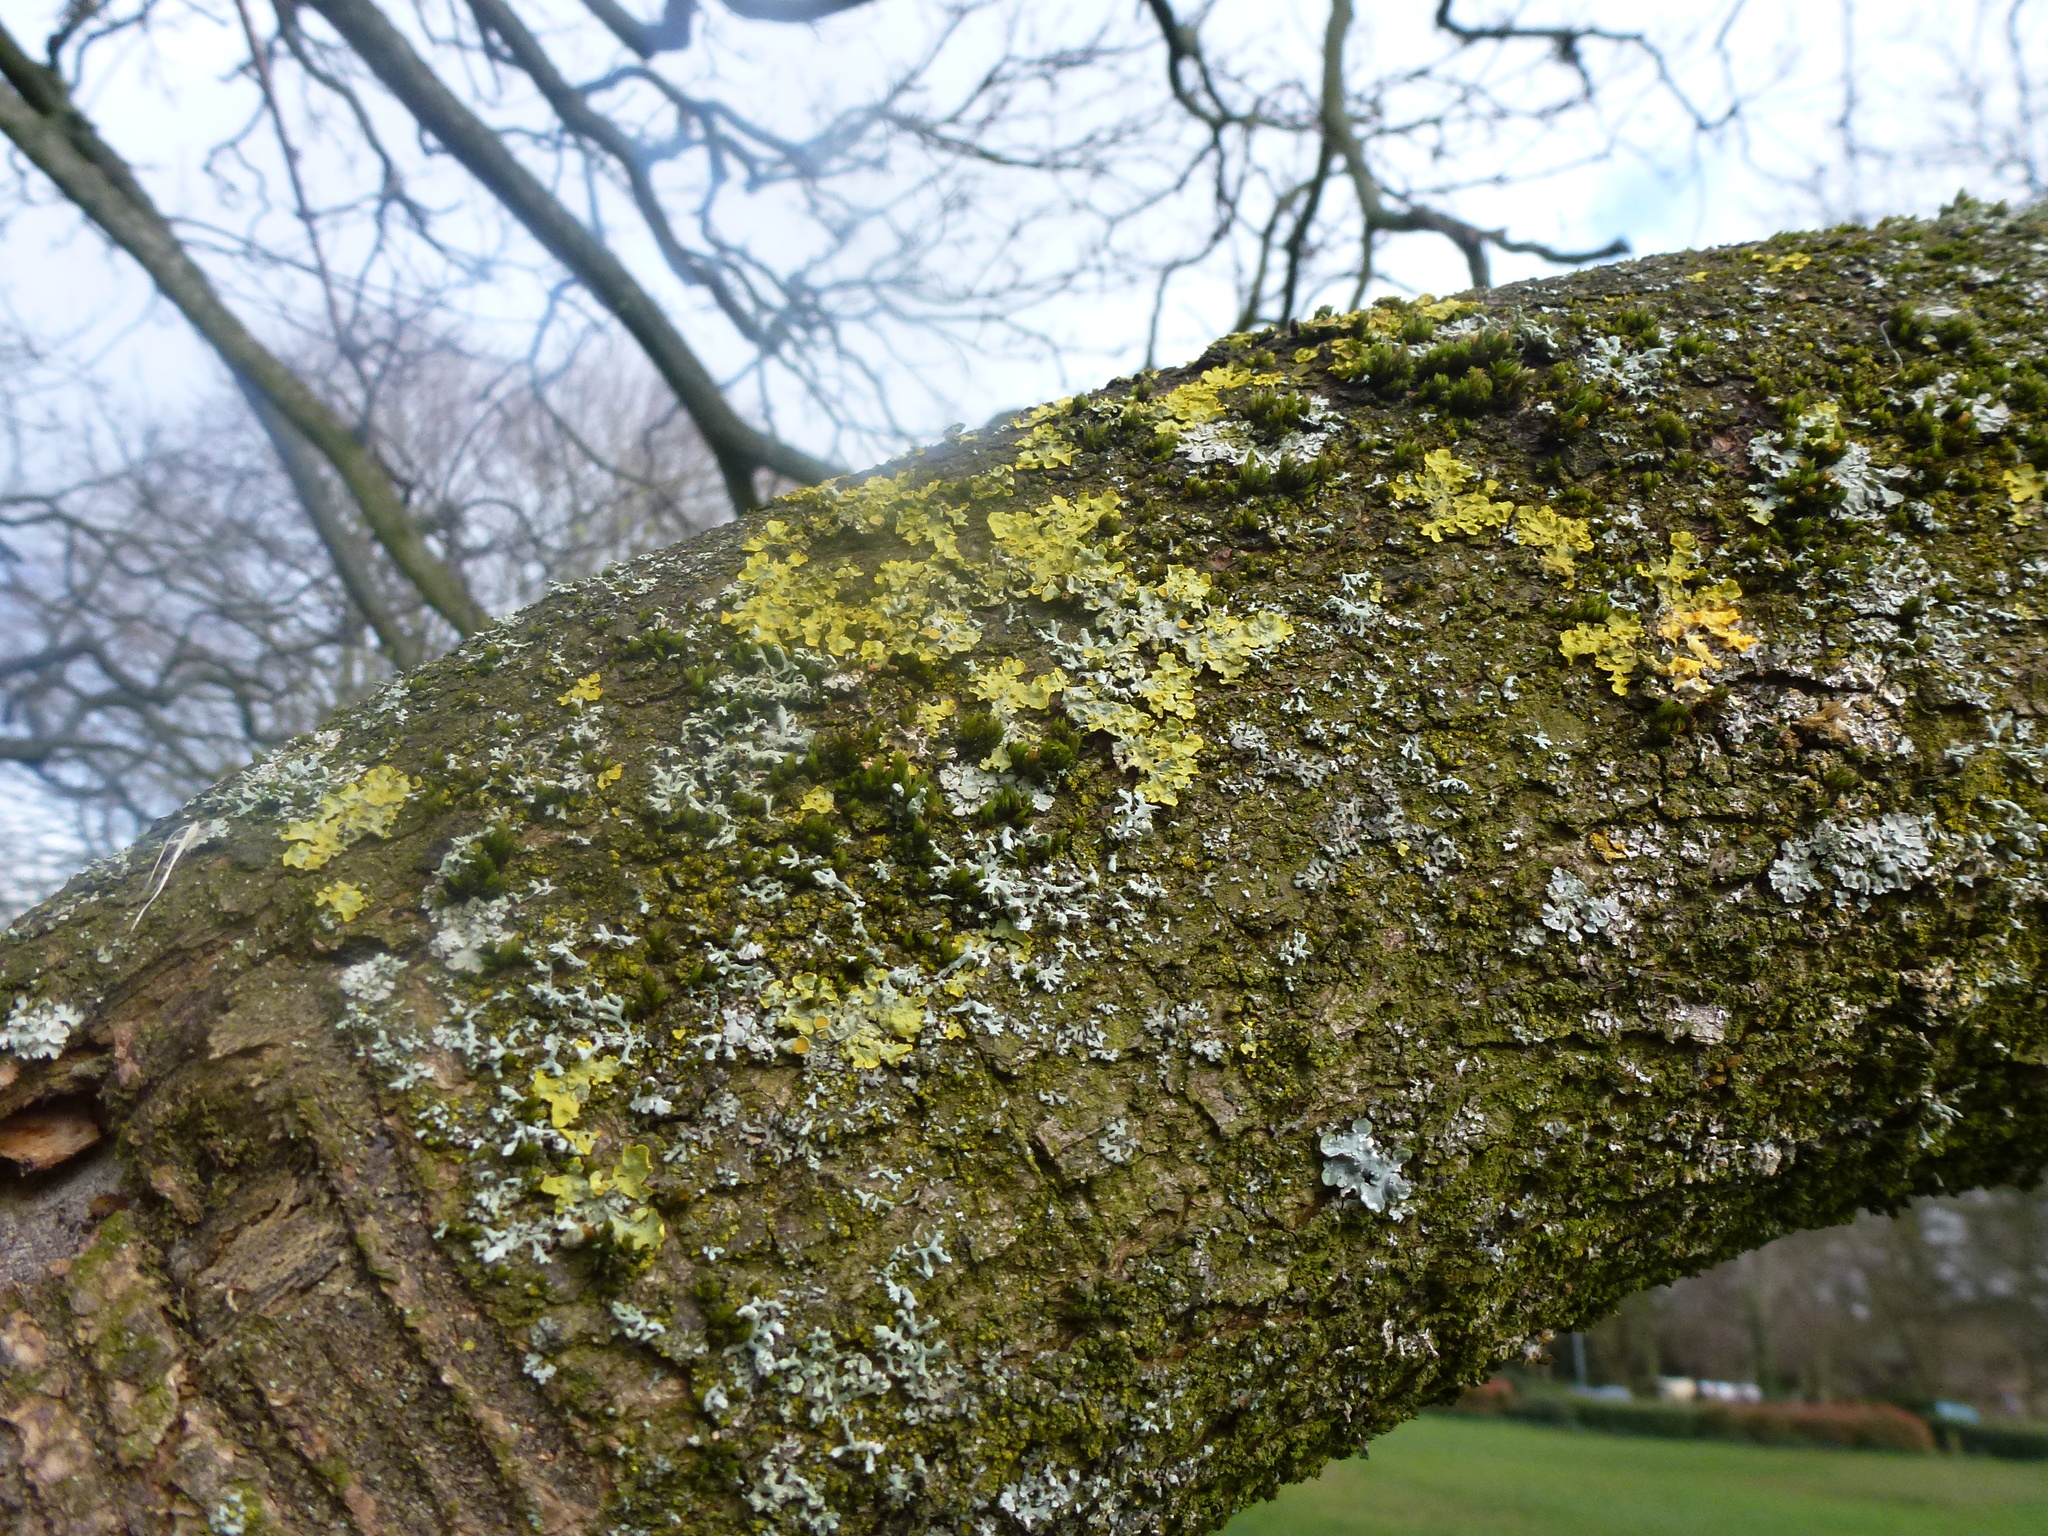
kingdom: Fungi
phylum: Ascomycota
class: Lecanoromycetes
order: Teloschistales
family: Teloschistaceae
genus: Xanthoria
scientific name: Xanthoria parietina
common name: Common orange lichen
